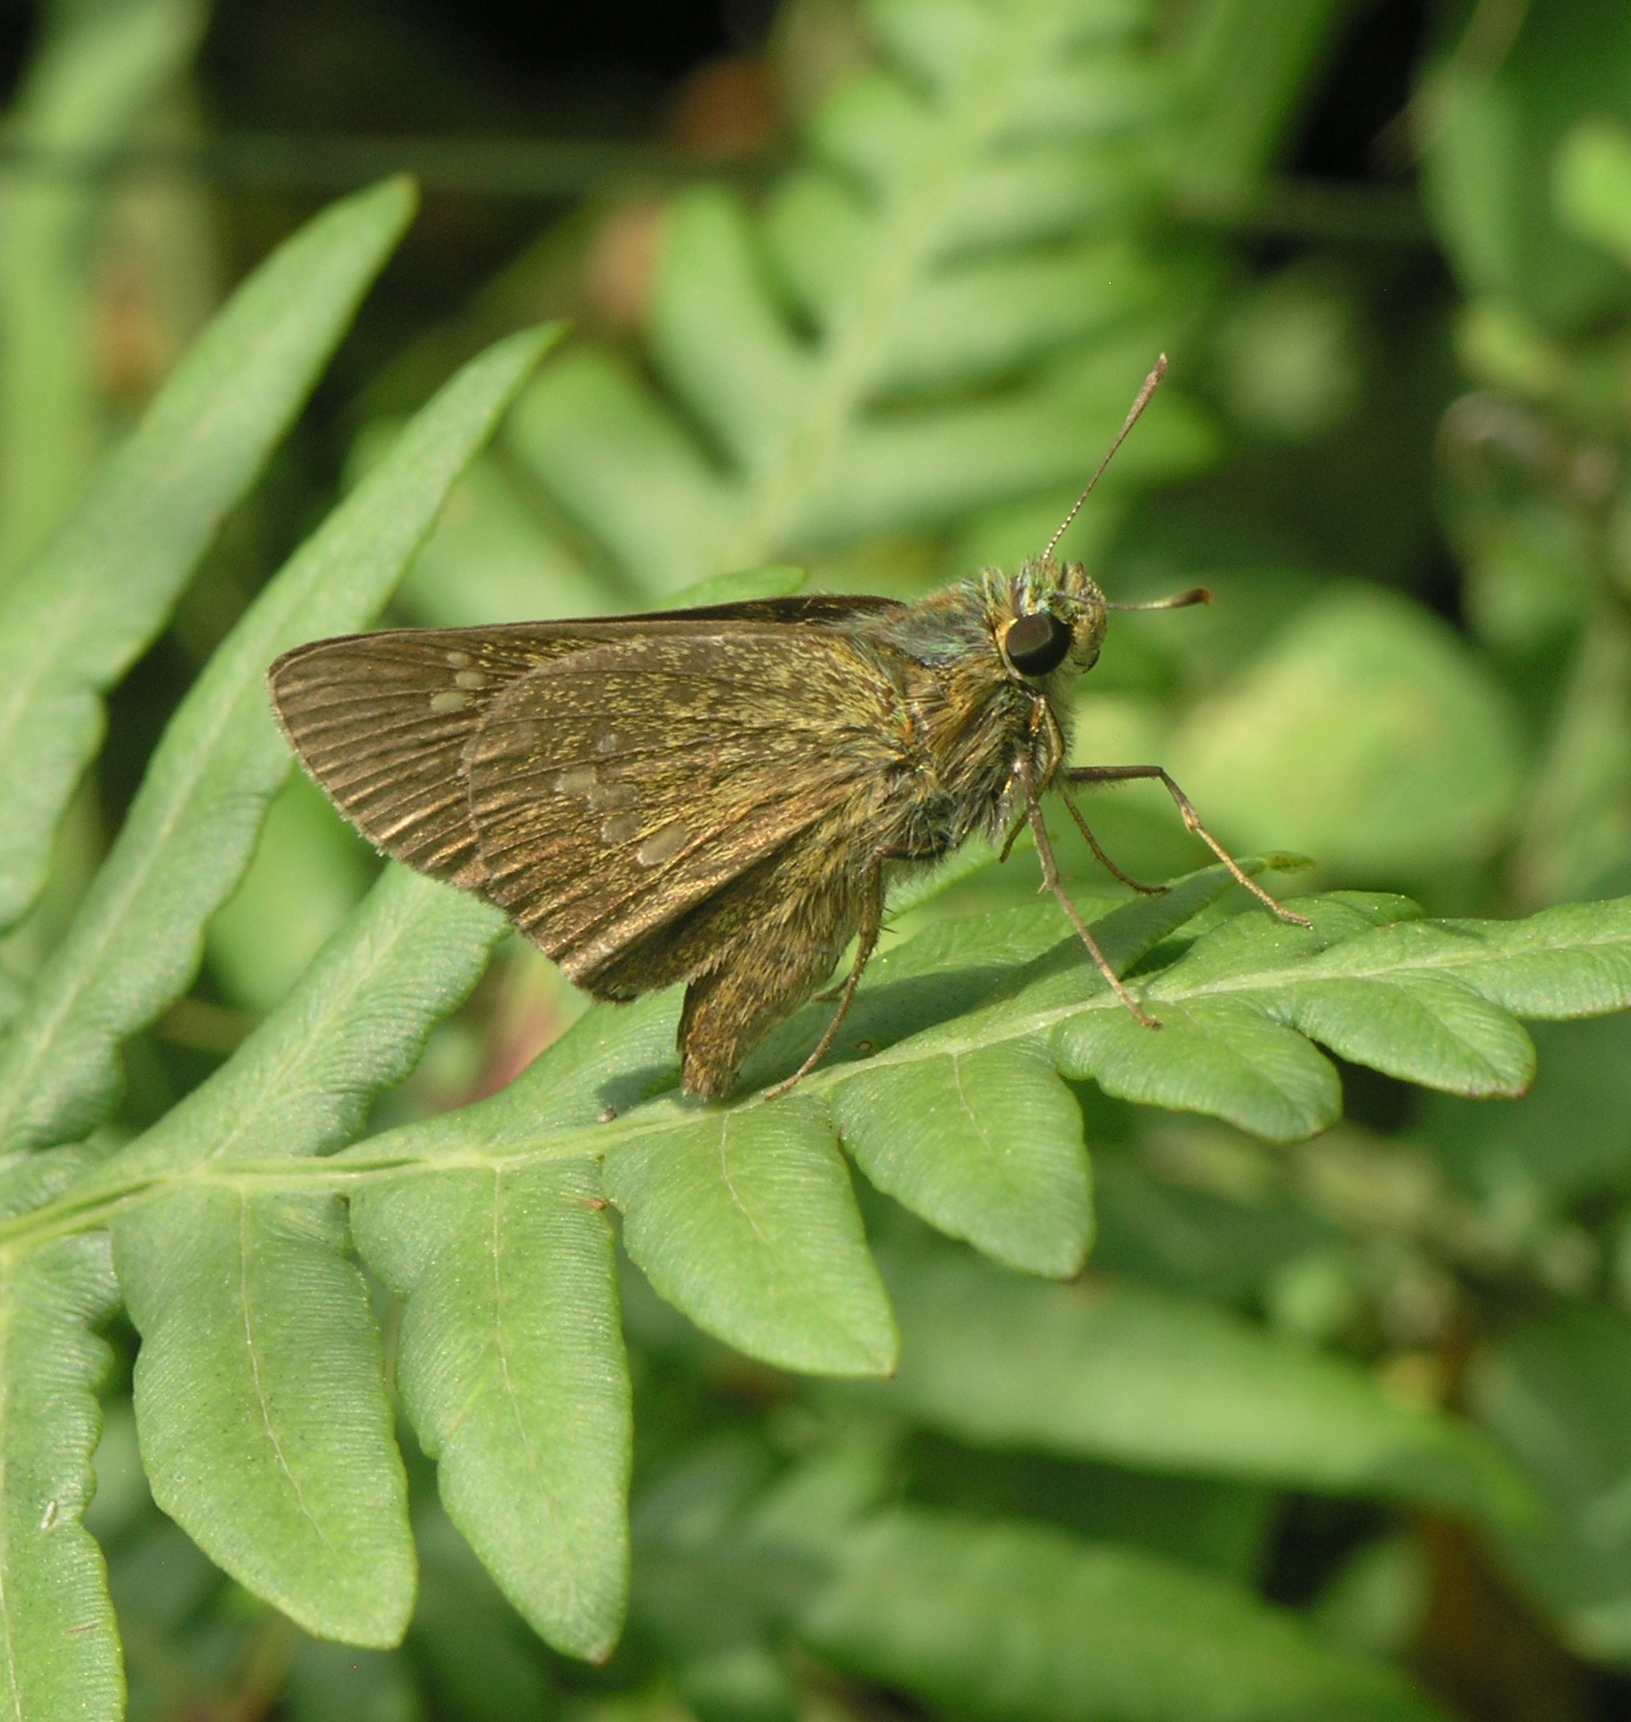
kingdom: Animalia
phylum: Arthropoda
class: Insecta
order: Lepidoptera
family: Hesperiidae
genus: Polytremis
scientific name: Polytremis zina
